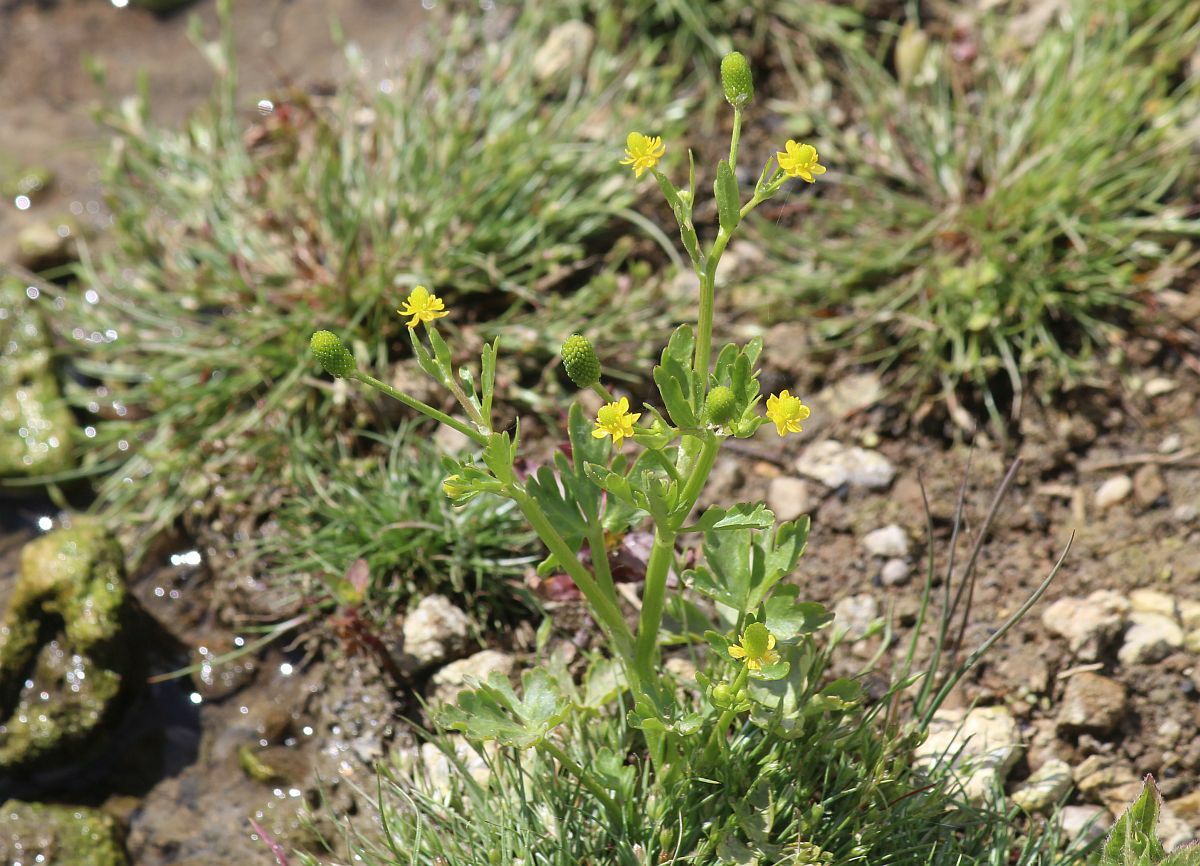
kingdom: Plantae
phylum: Tracheophyta
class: Magnoliopsida
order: Ranunculales
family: Ranunculaceae
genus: Ranunculus
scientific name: Ranunculus sceleratus
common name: Celery-leaved buttercup
